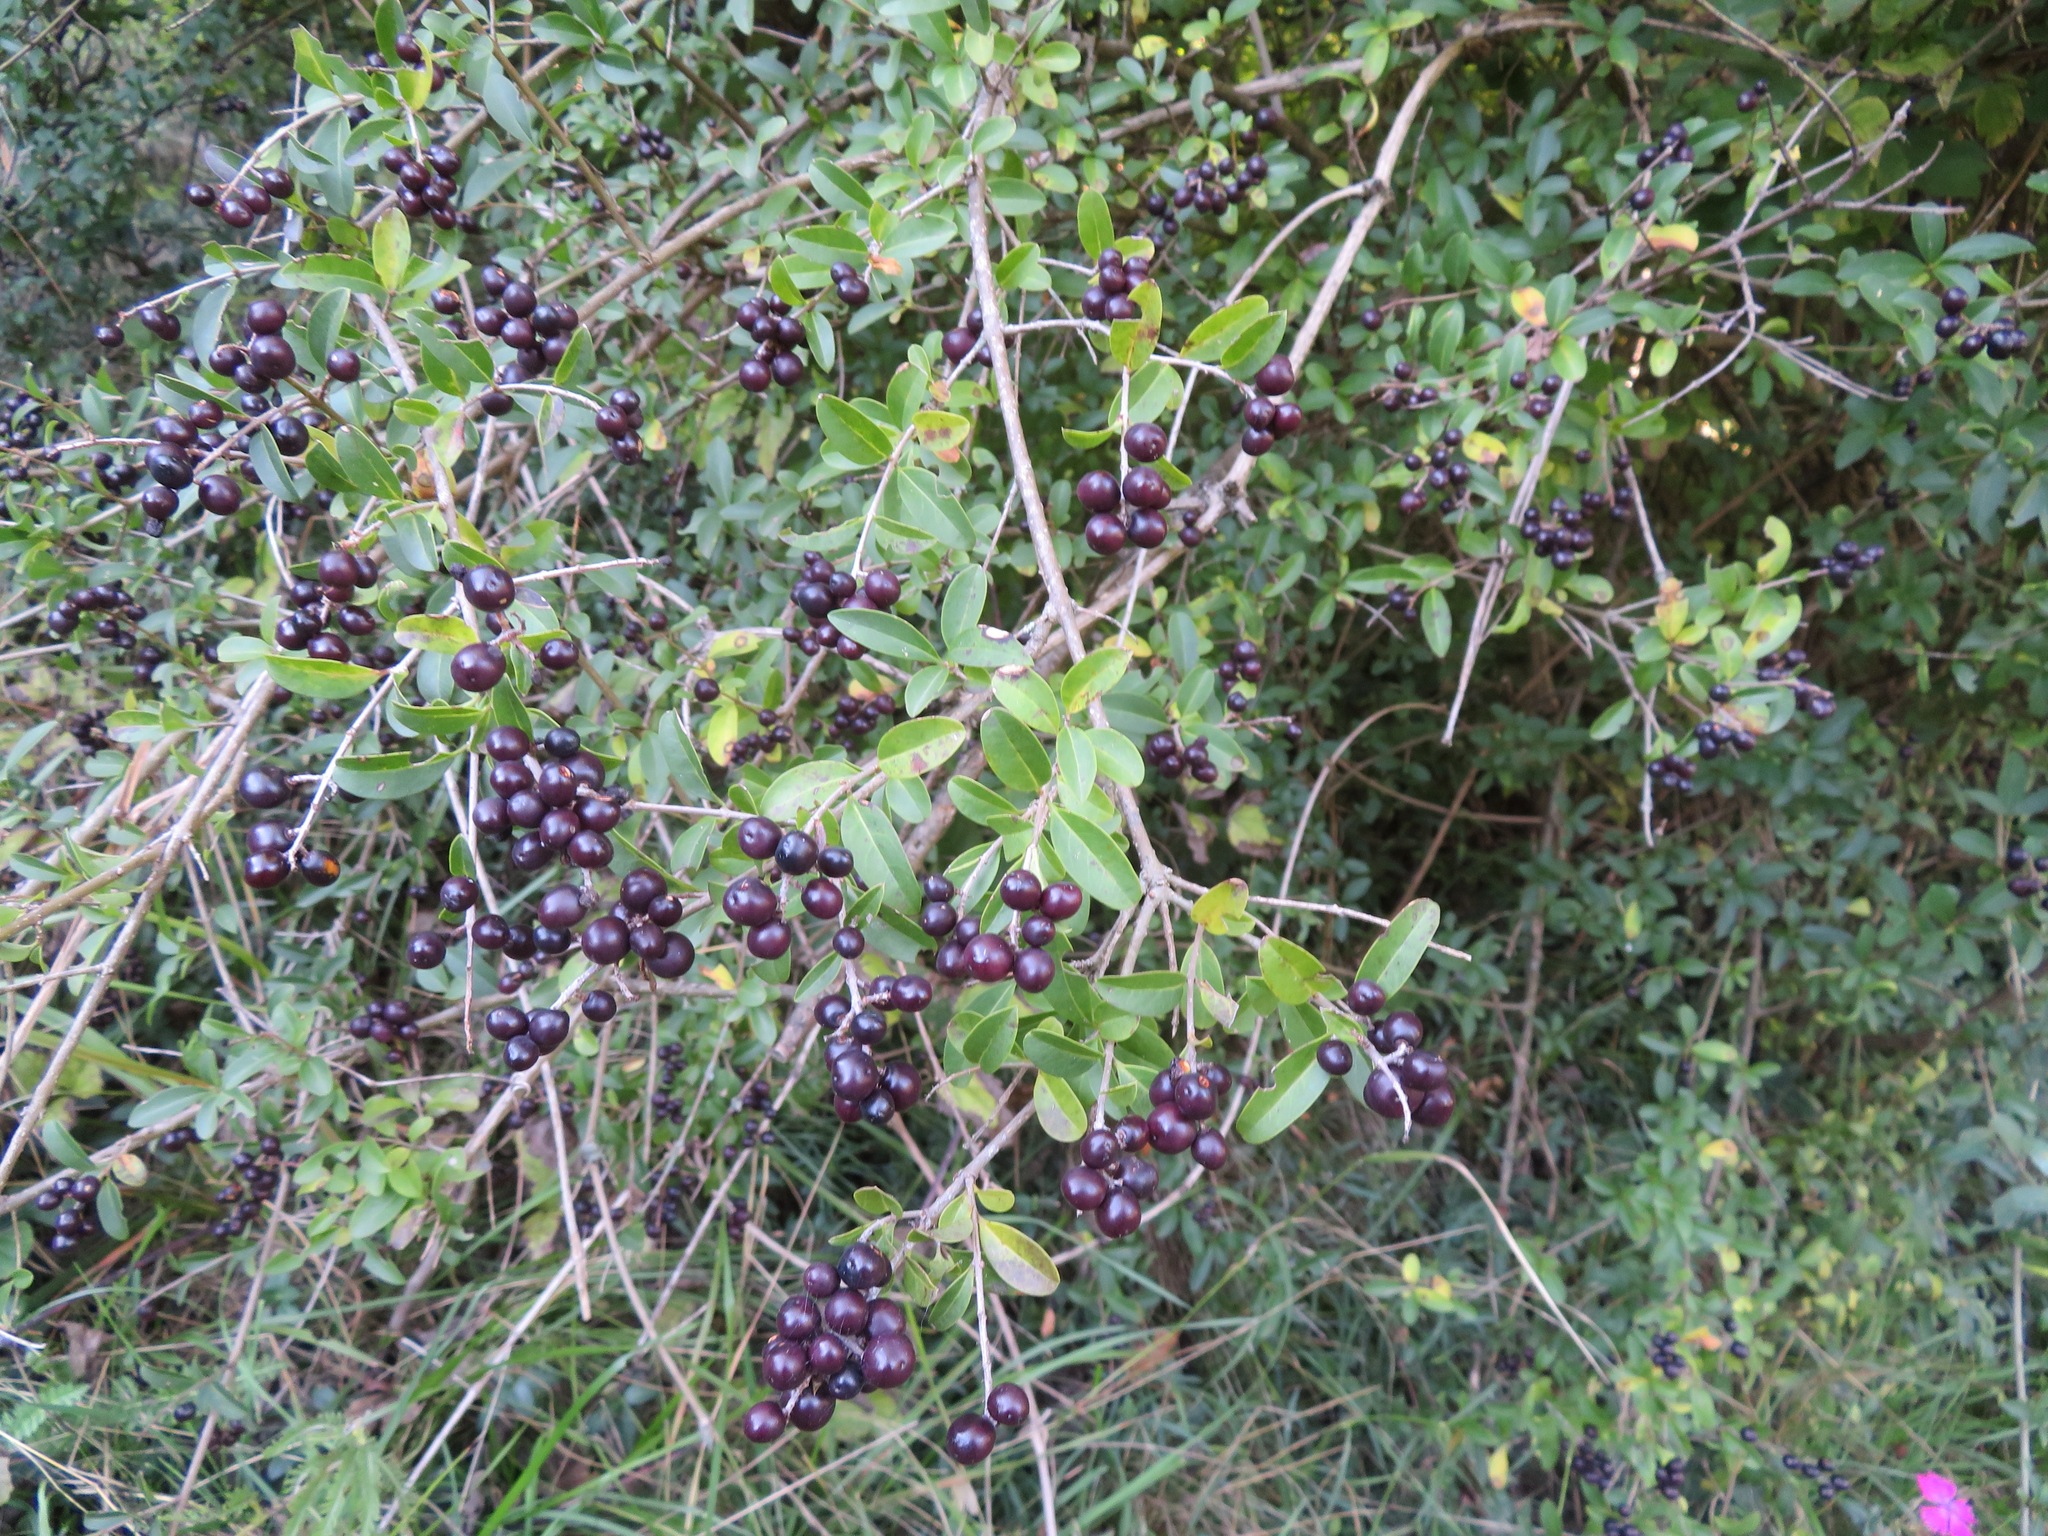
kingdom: Plantae
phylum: Tracheophyta
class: Magnoliopsida
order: Lamiales
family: Oleaceae
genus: Ligustrum
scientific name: Ligustrum vulgare
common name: Wild privet
